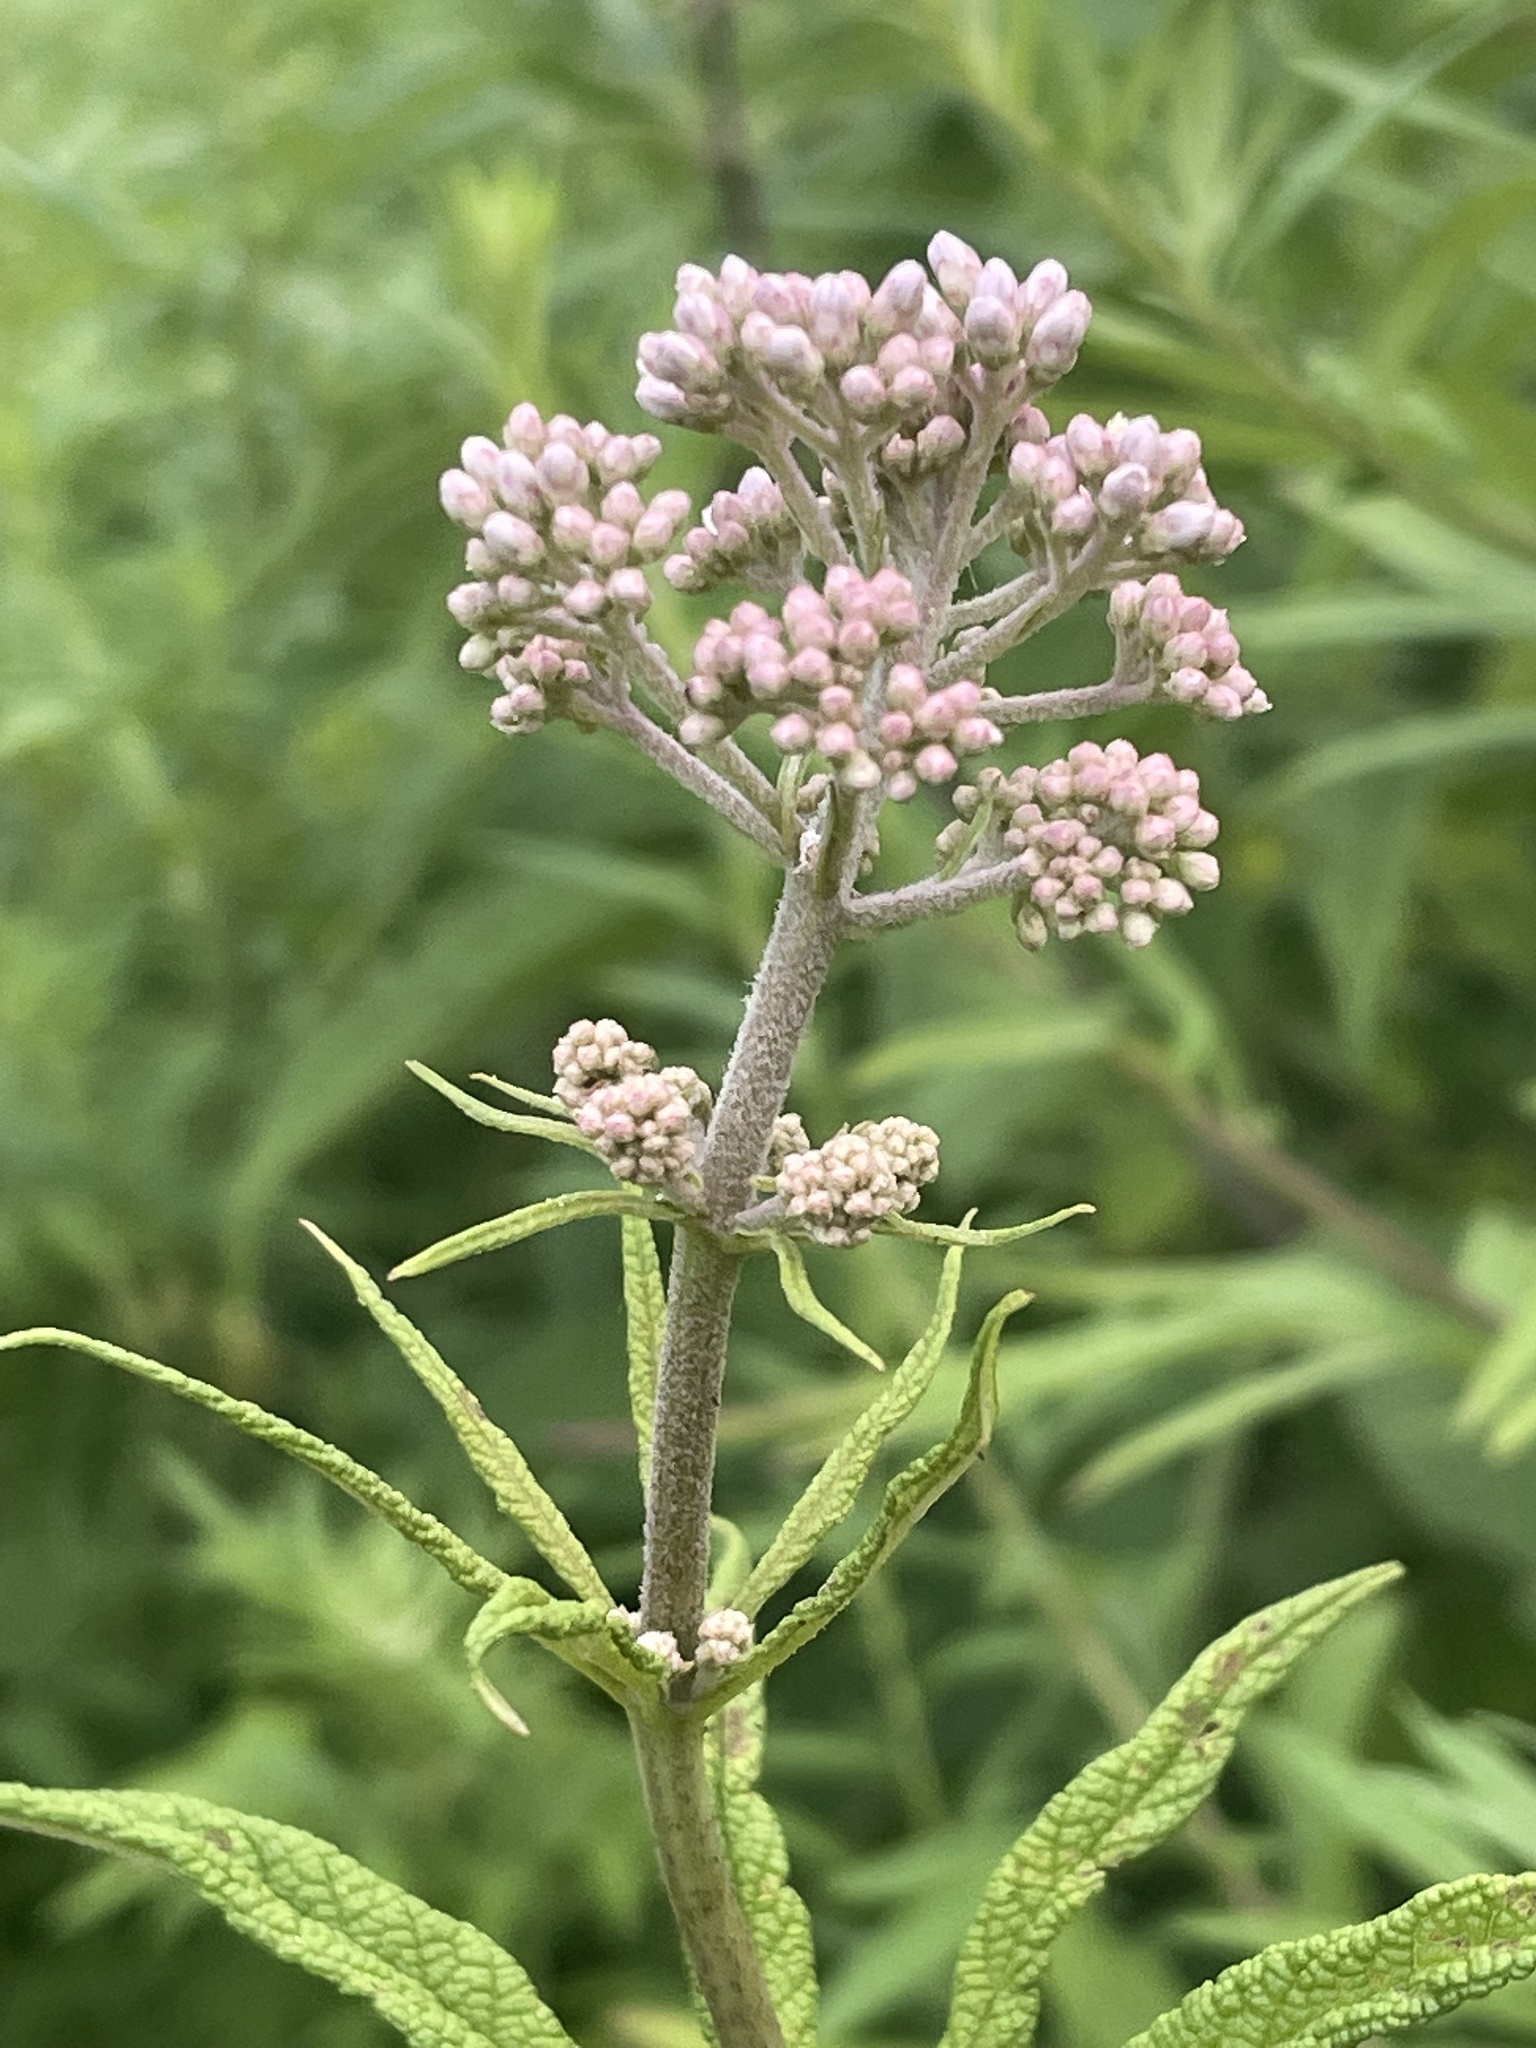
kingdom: Plantae
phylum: Tracheophyta
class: Magnoliopsida
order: Asterales
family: Asteraceae
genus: Eutrochium
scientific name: Eutrochium fistulosum
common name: Trumpetweed
